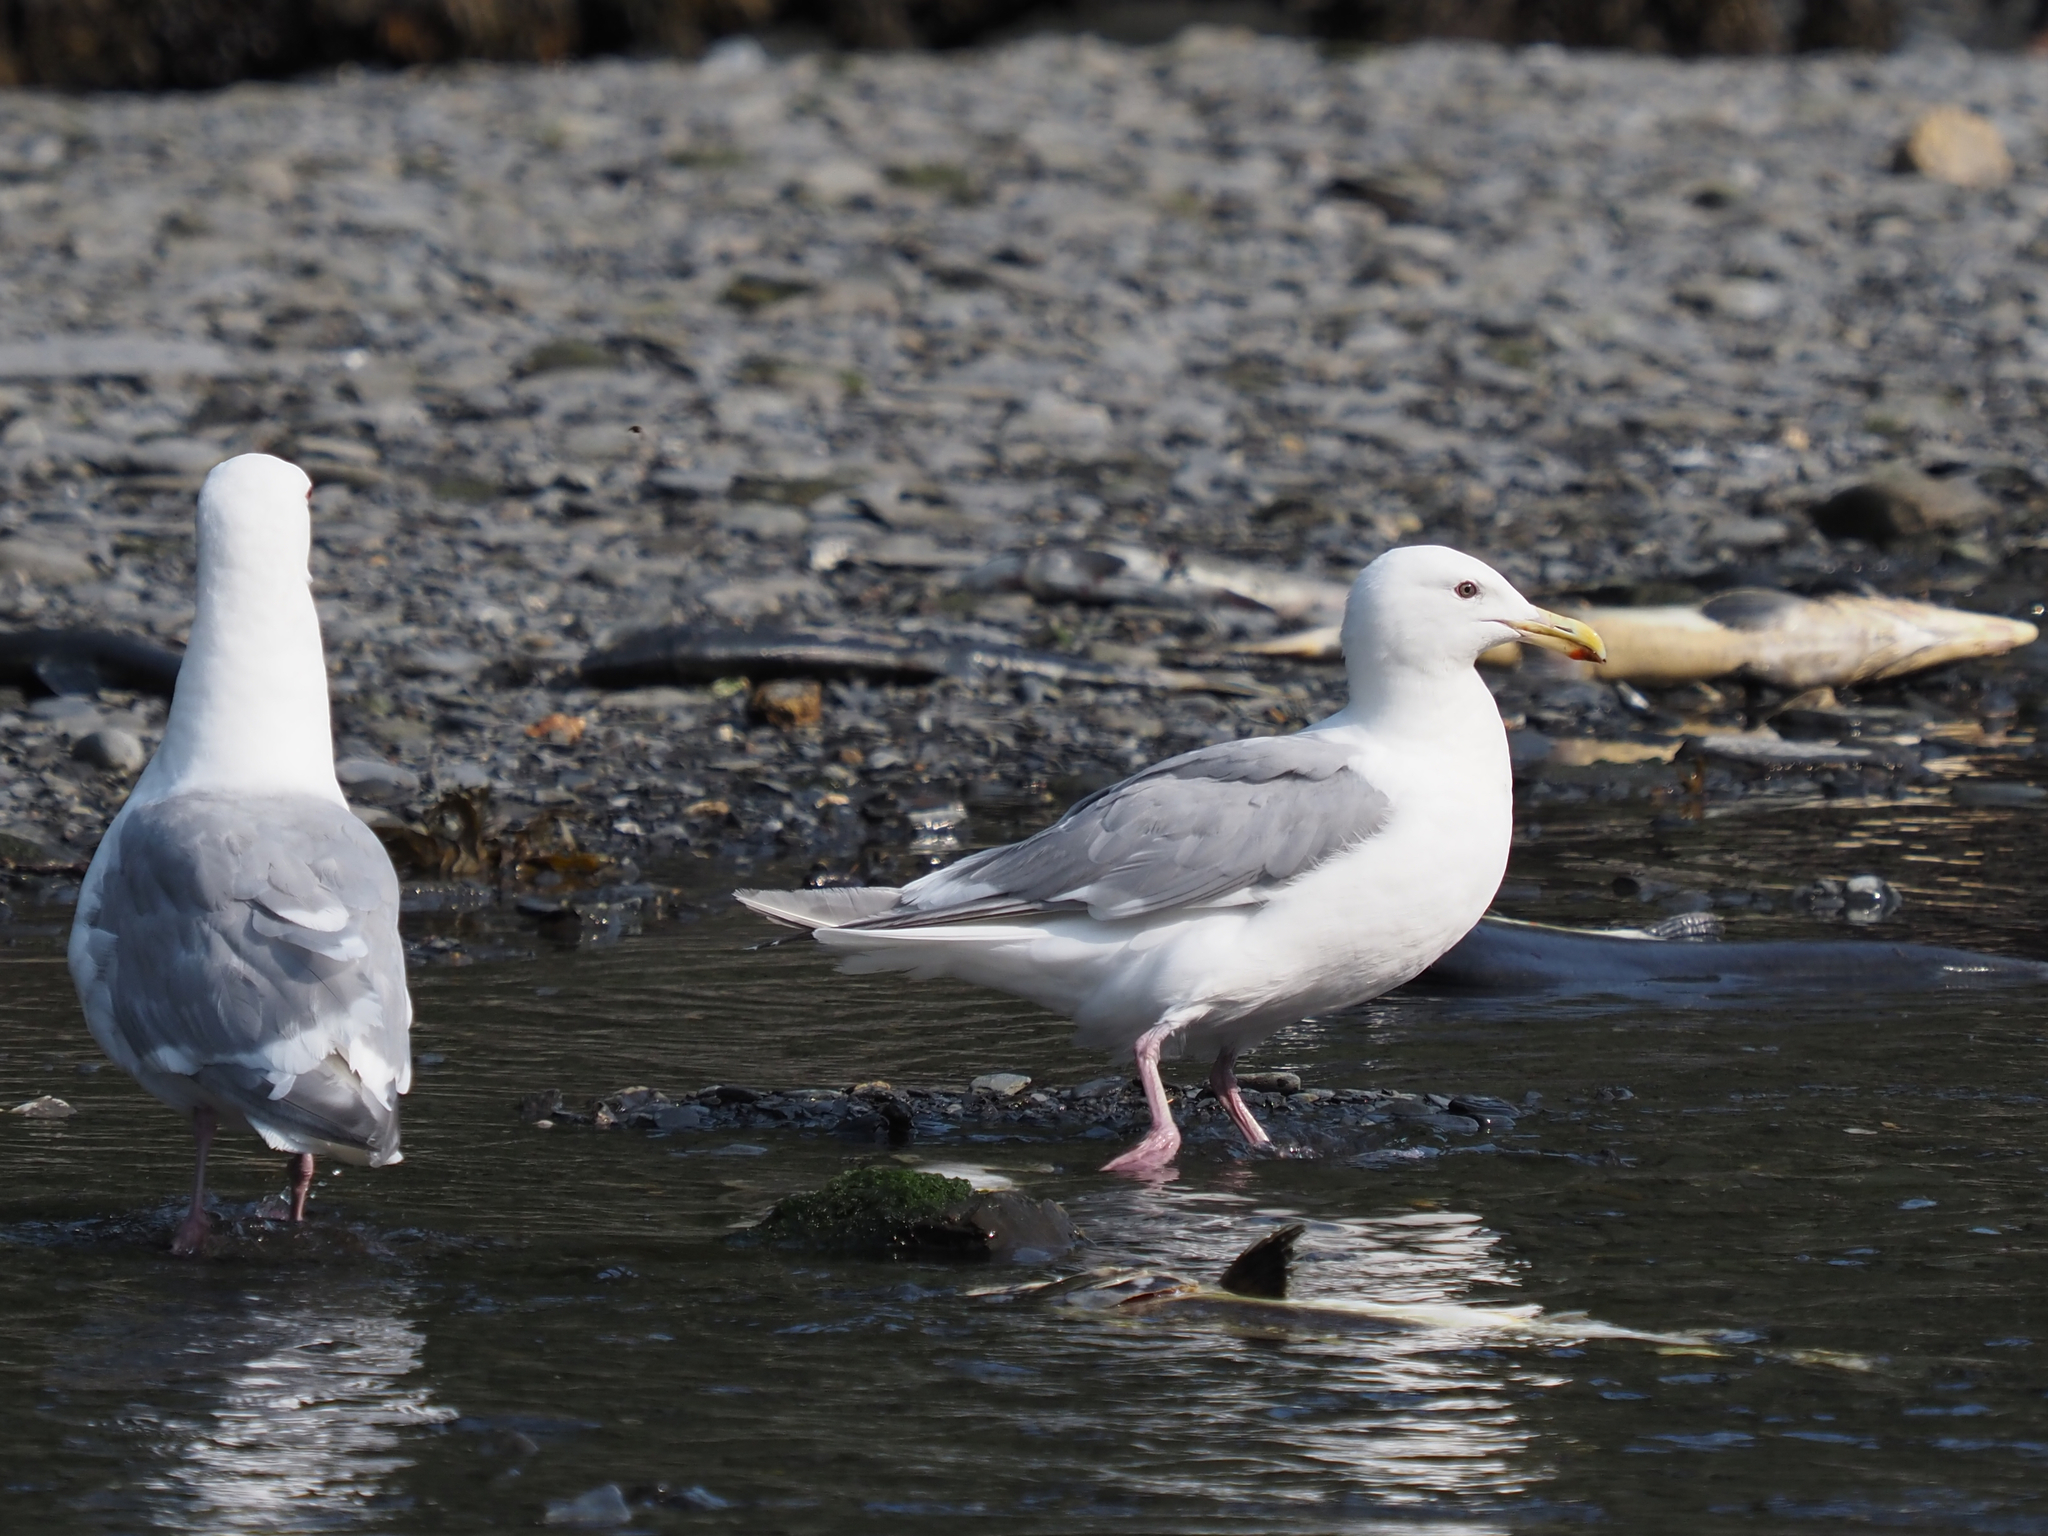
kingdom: Animalia
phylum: Chordata
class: Aves
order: Charadriiformes
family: Laridae
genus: Larus
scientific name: Larus glaucescens
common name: Glaucous-winged gull
